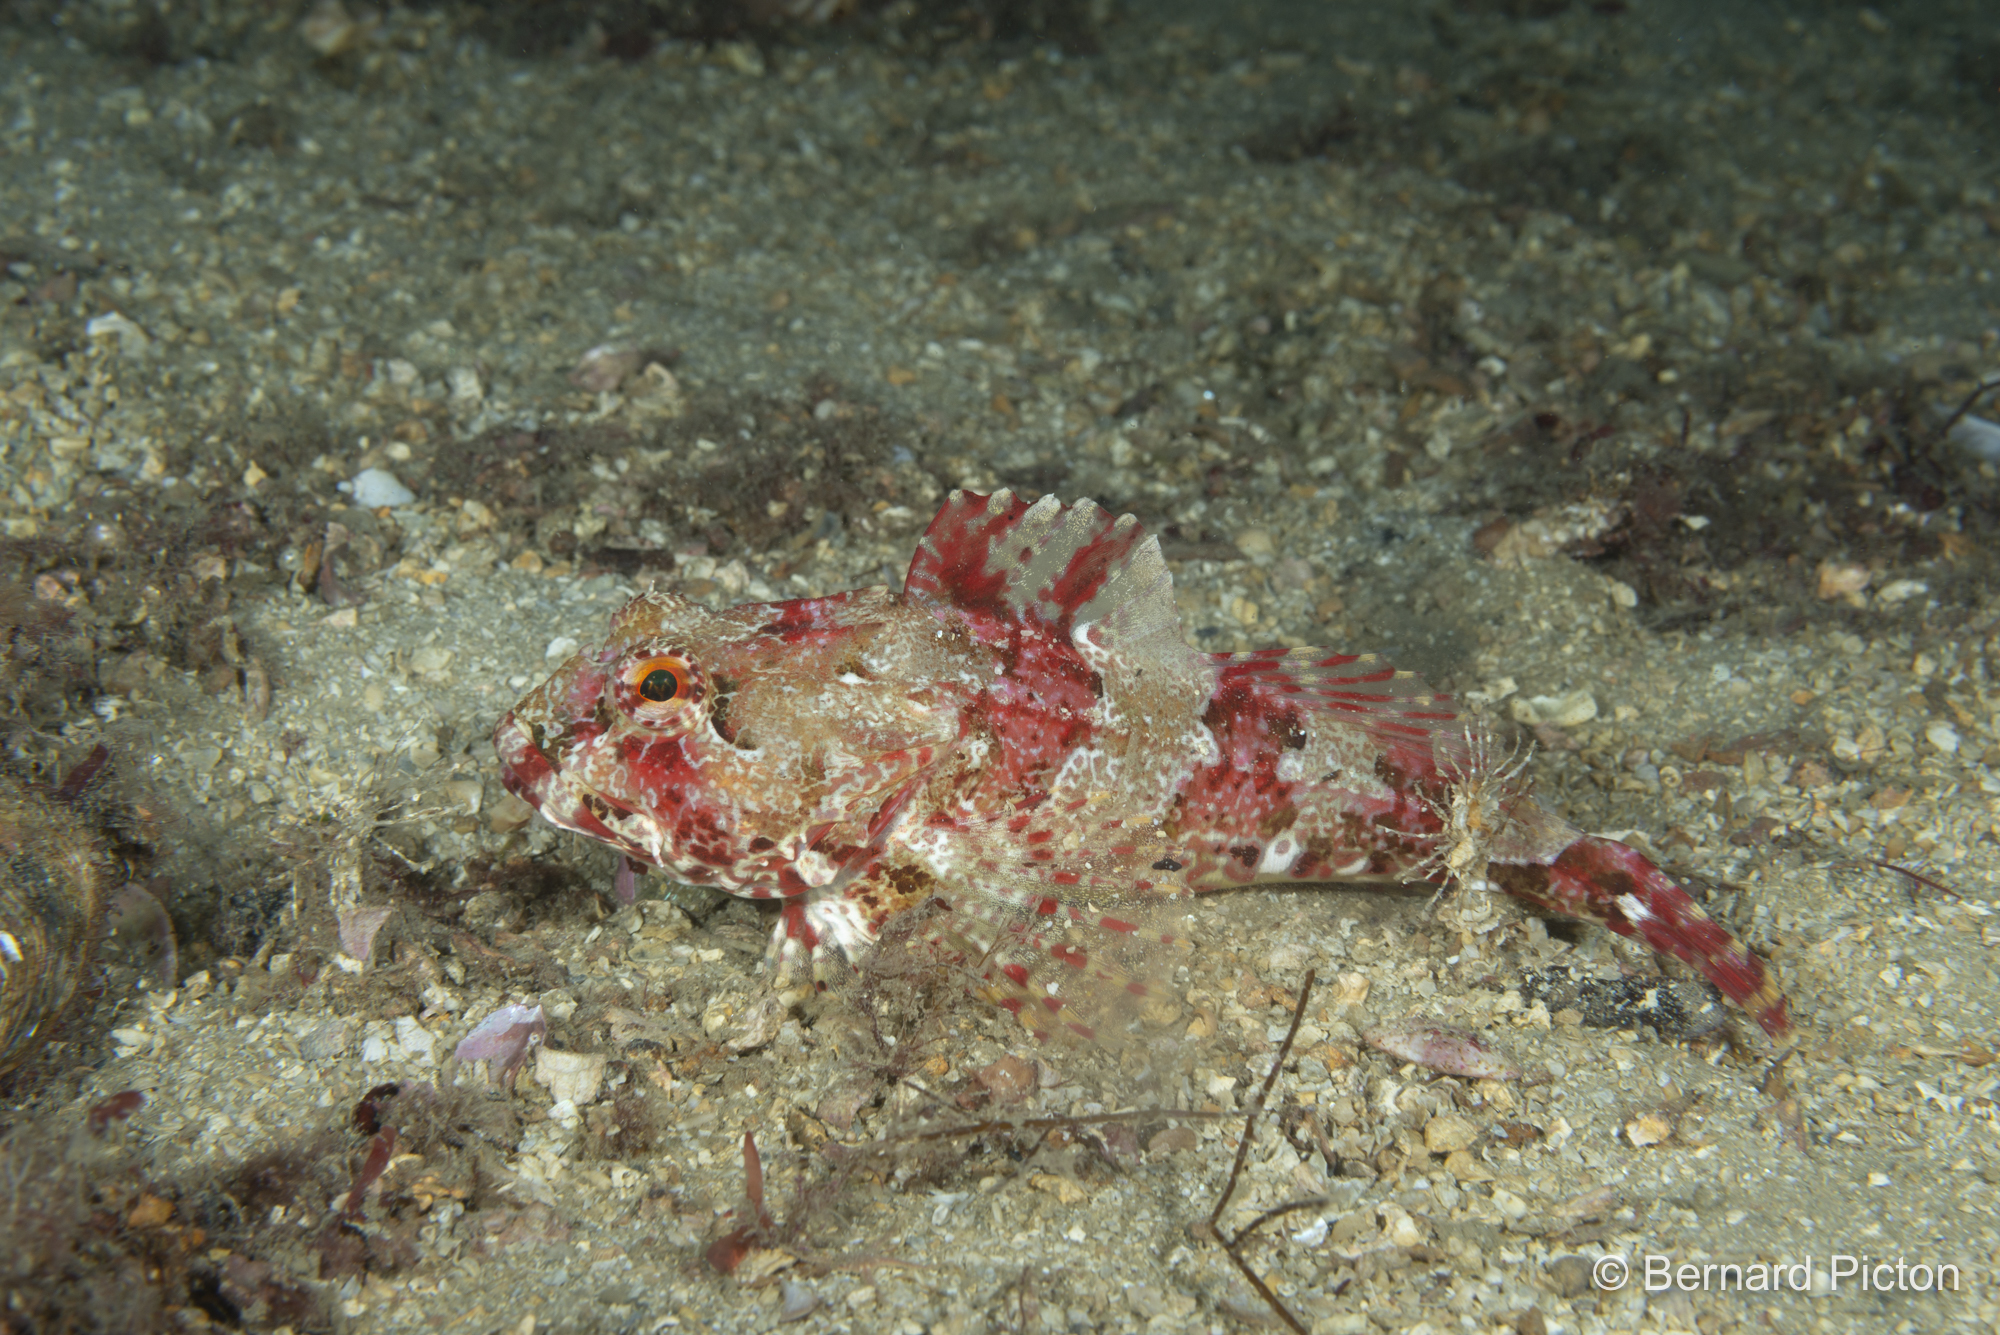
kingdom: Animalia
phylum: Chordata
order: Scorpaeniformes
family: Cottidae
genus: Taurulus
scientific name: Taurulus bubalis
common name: Sea scorpion
